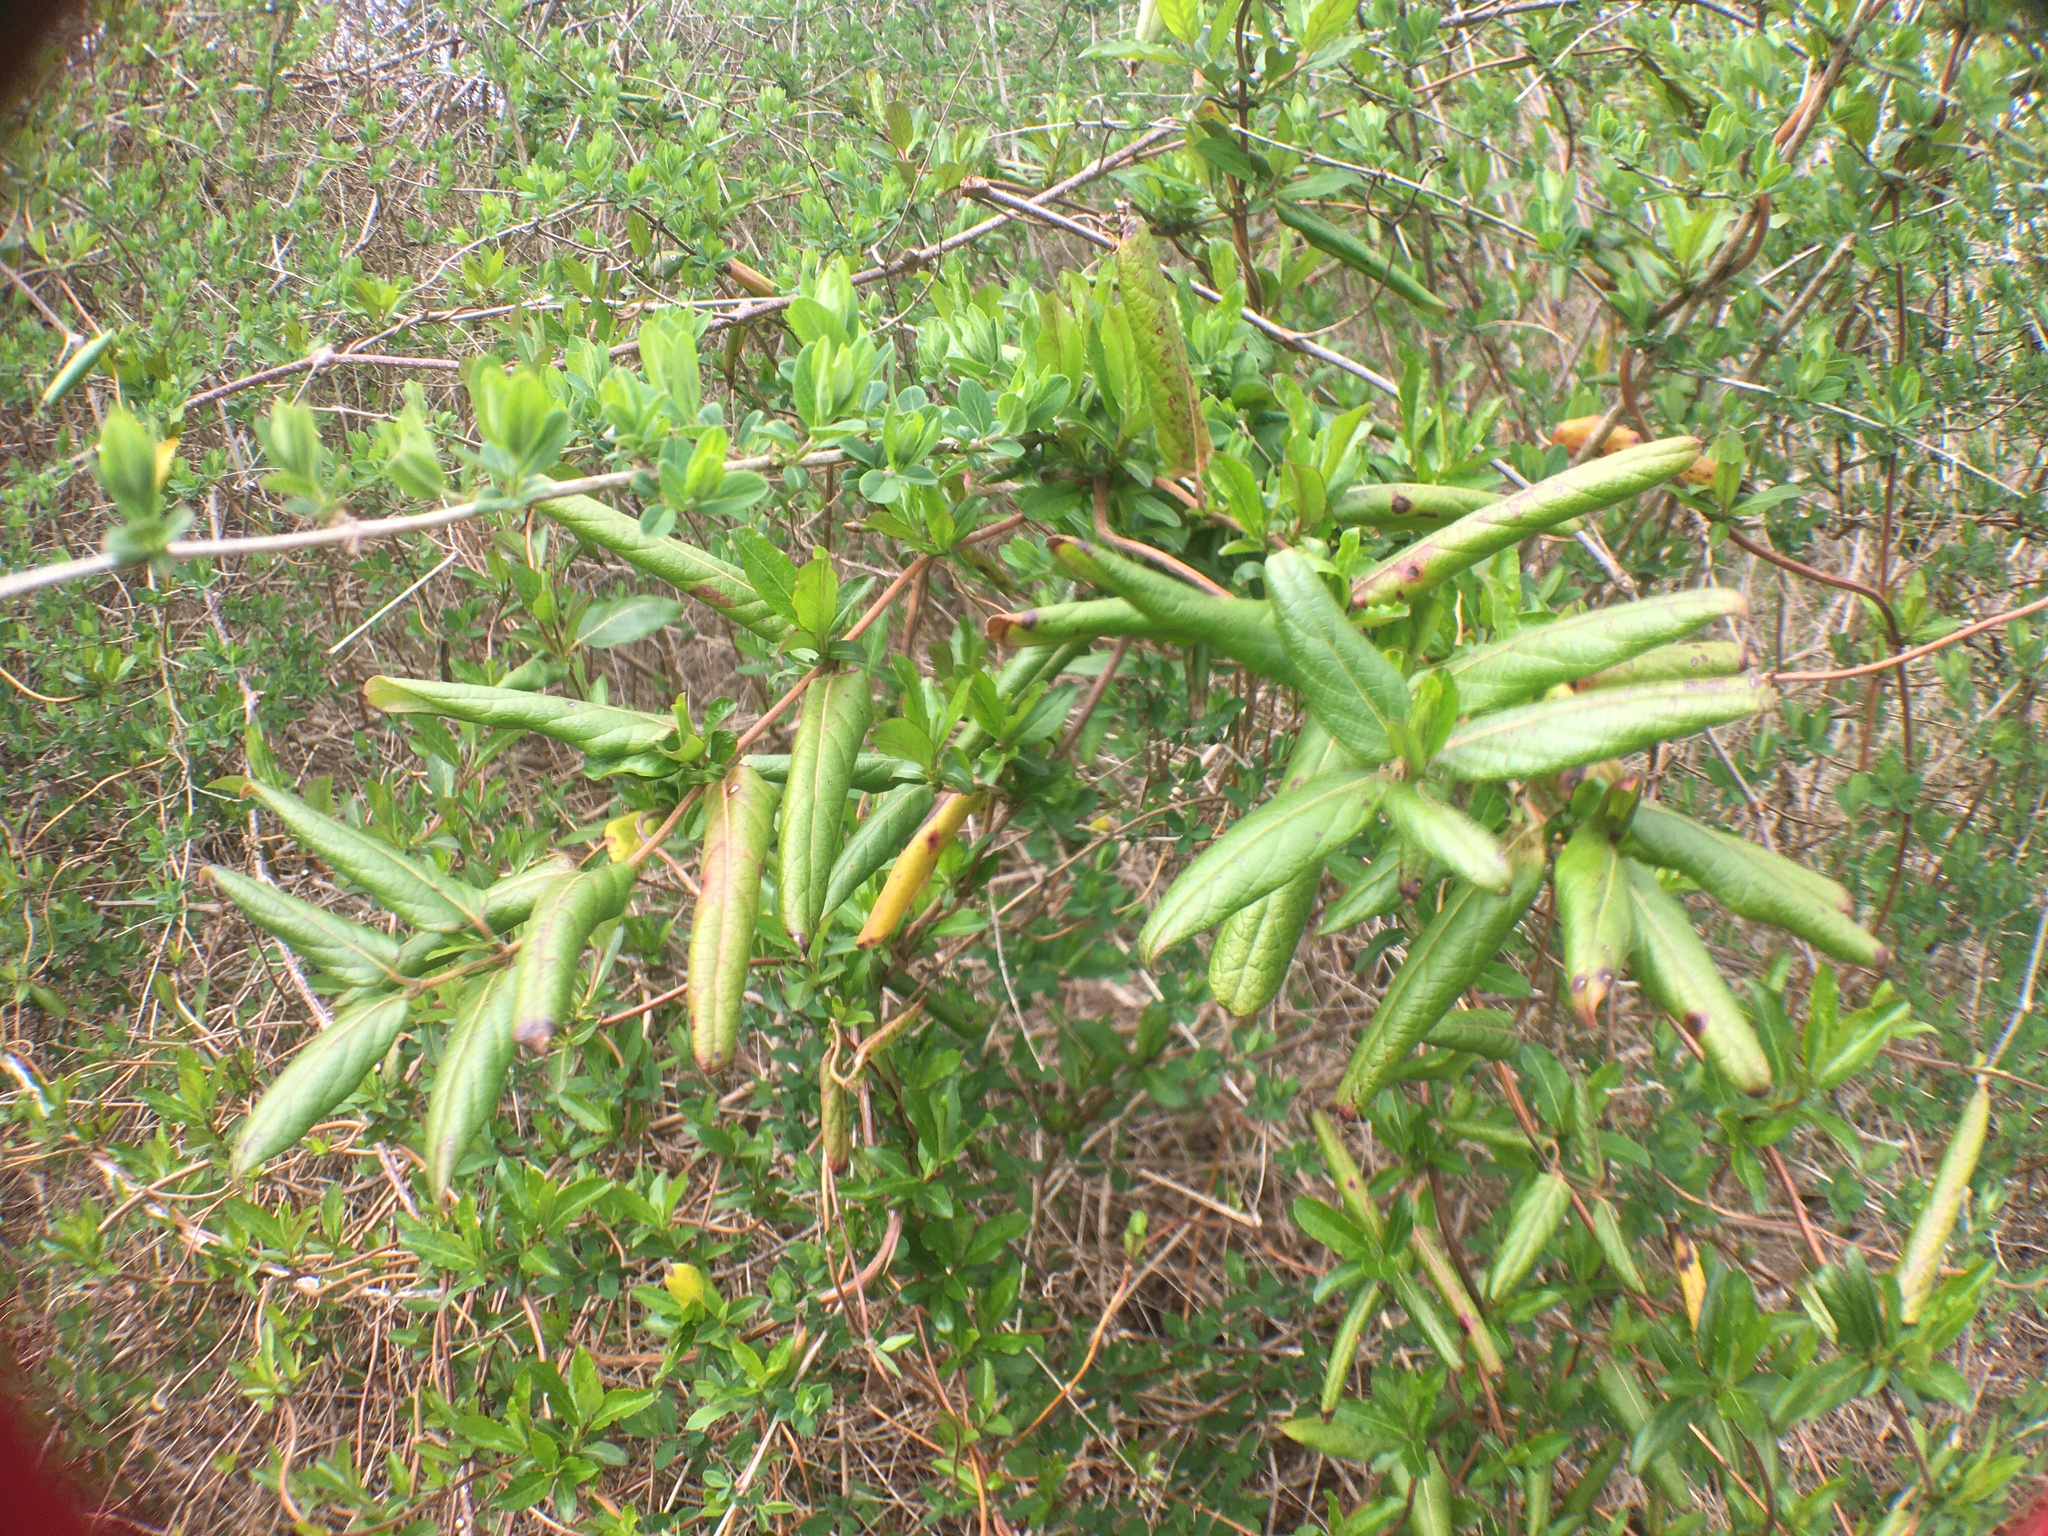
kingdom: Plantae
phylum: Tracheophyta
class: Magnoliopsida
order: Dipsacales
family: Caprifoliaceae
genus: Lonicera
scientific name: Lonicera japonica
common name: Japanese honeysuckle
